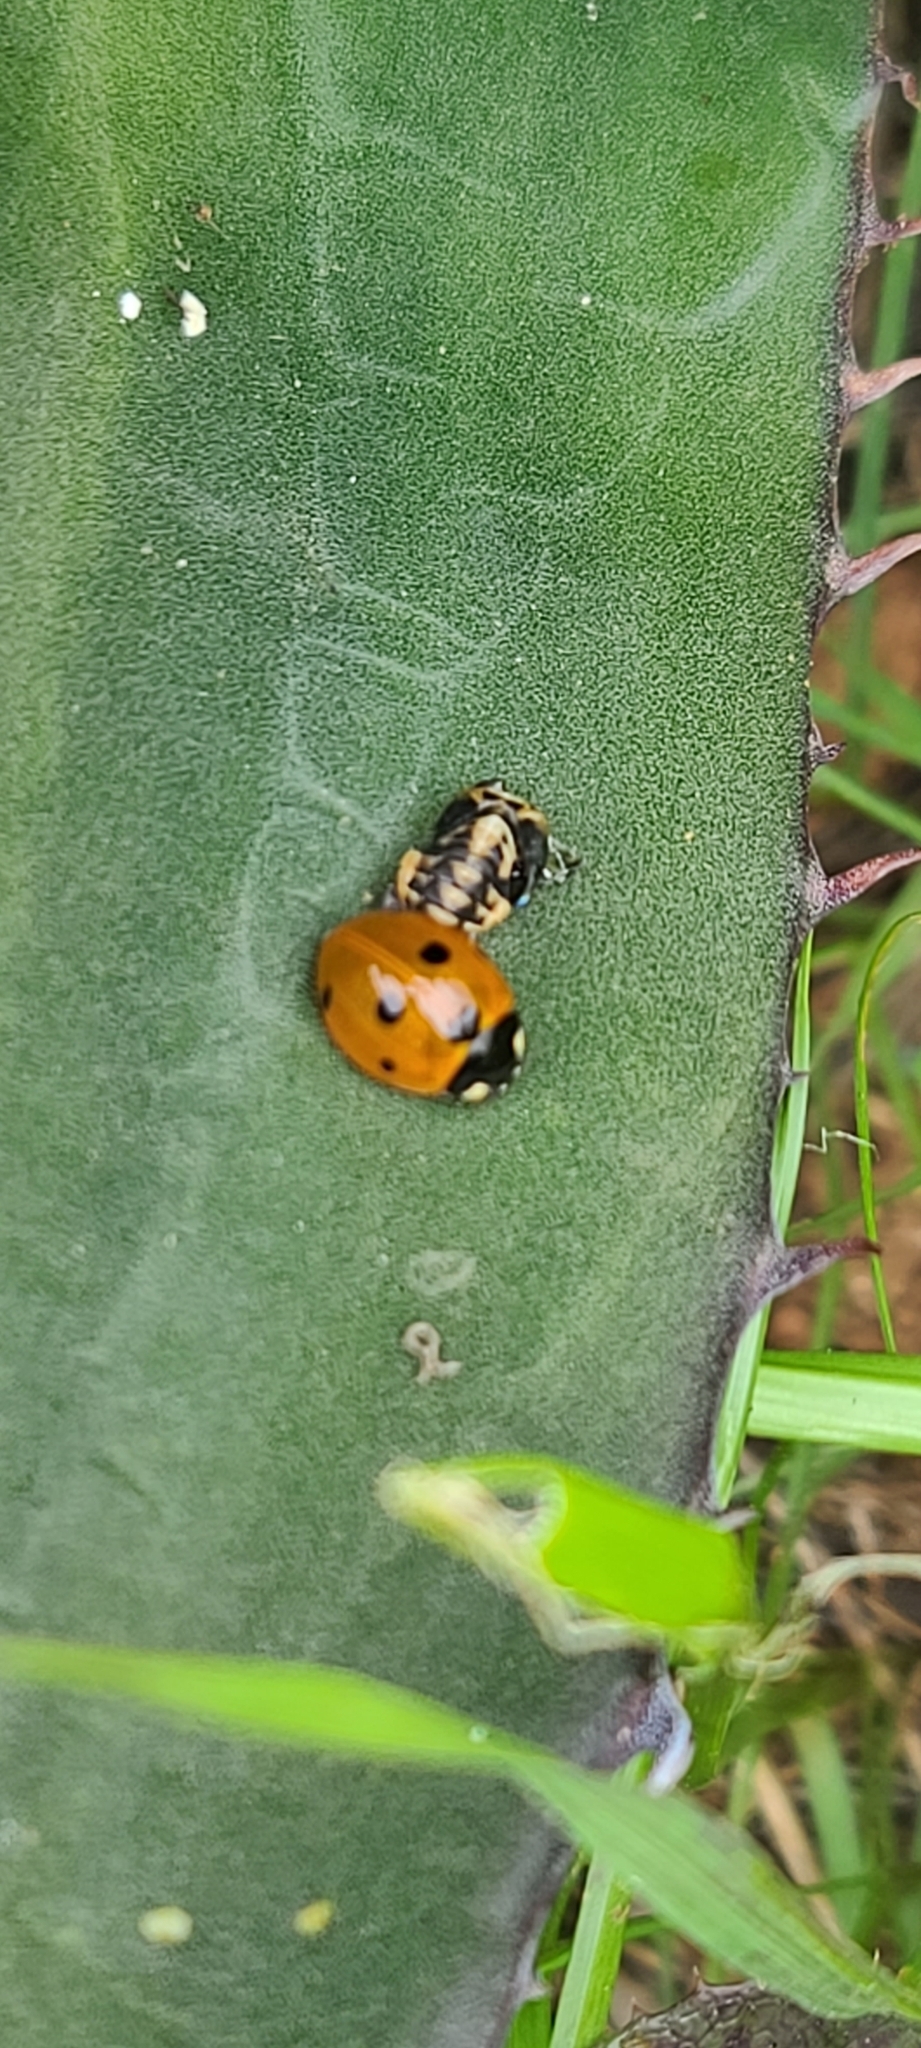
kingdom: Animalia
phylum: Arthropoda
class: Insecta
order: Coleoptera
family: Coccinellidae
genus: Coccinella
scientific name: Coccinella septempunctata
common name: Sevenspotted lady beetle
